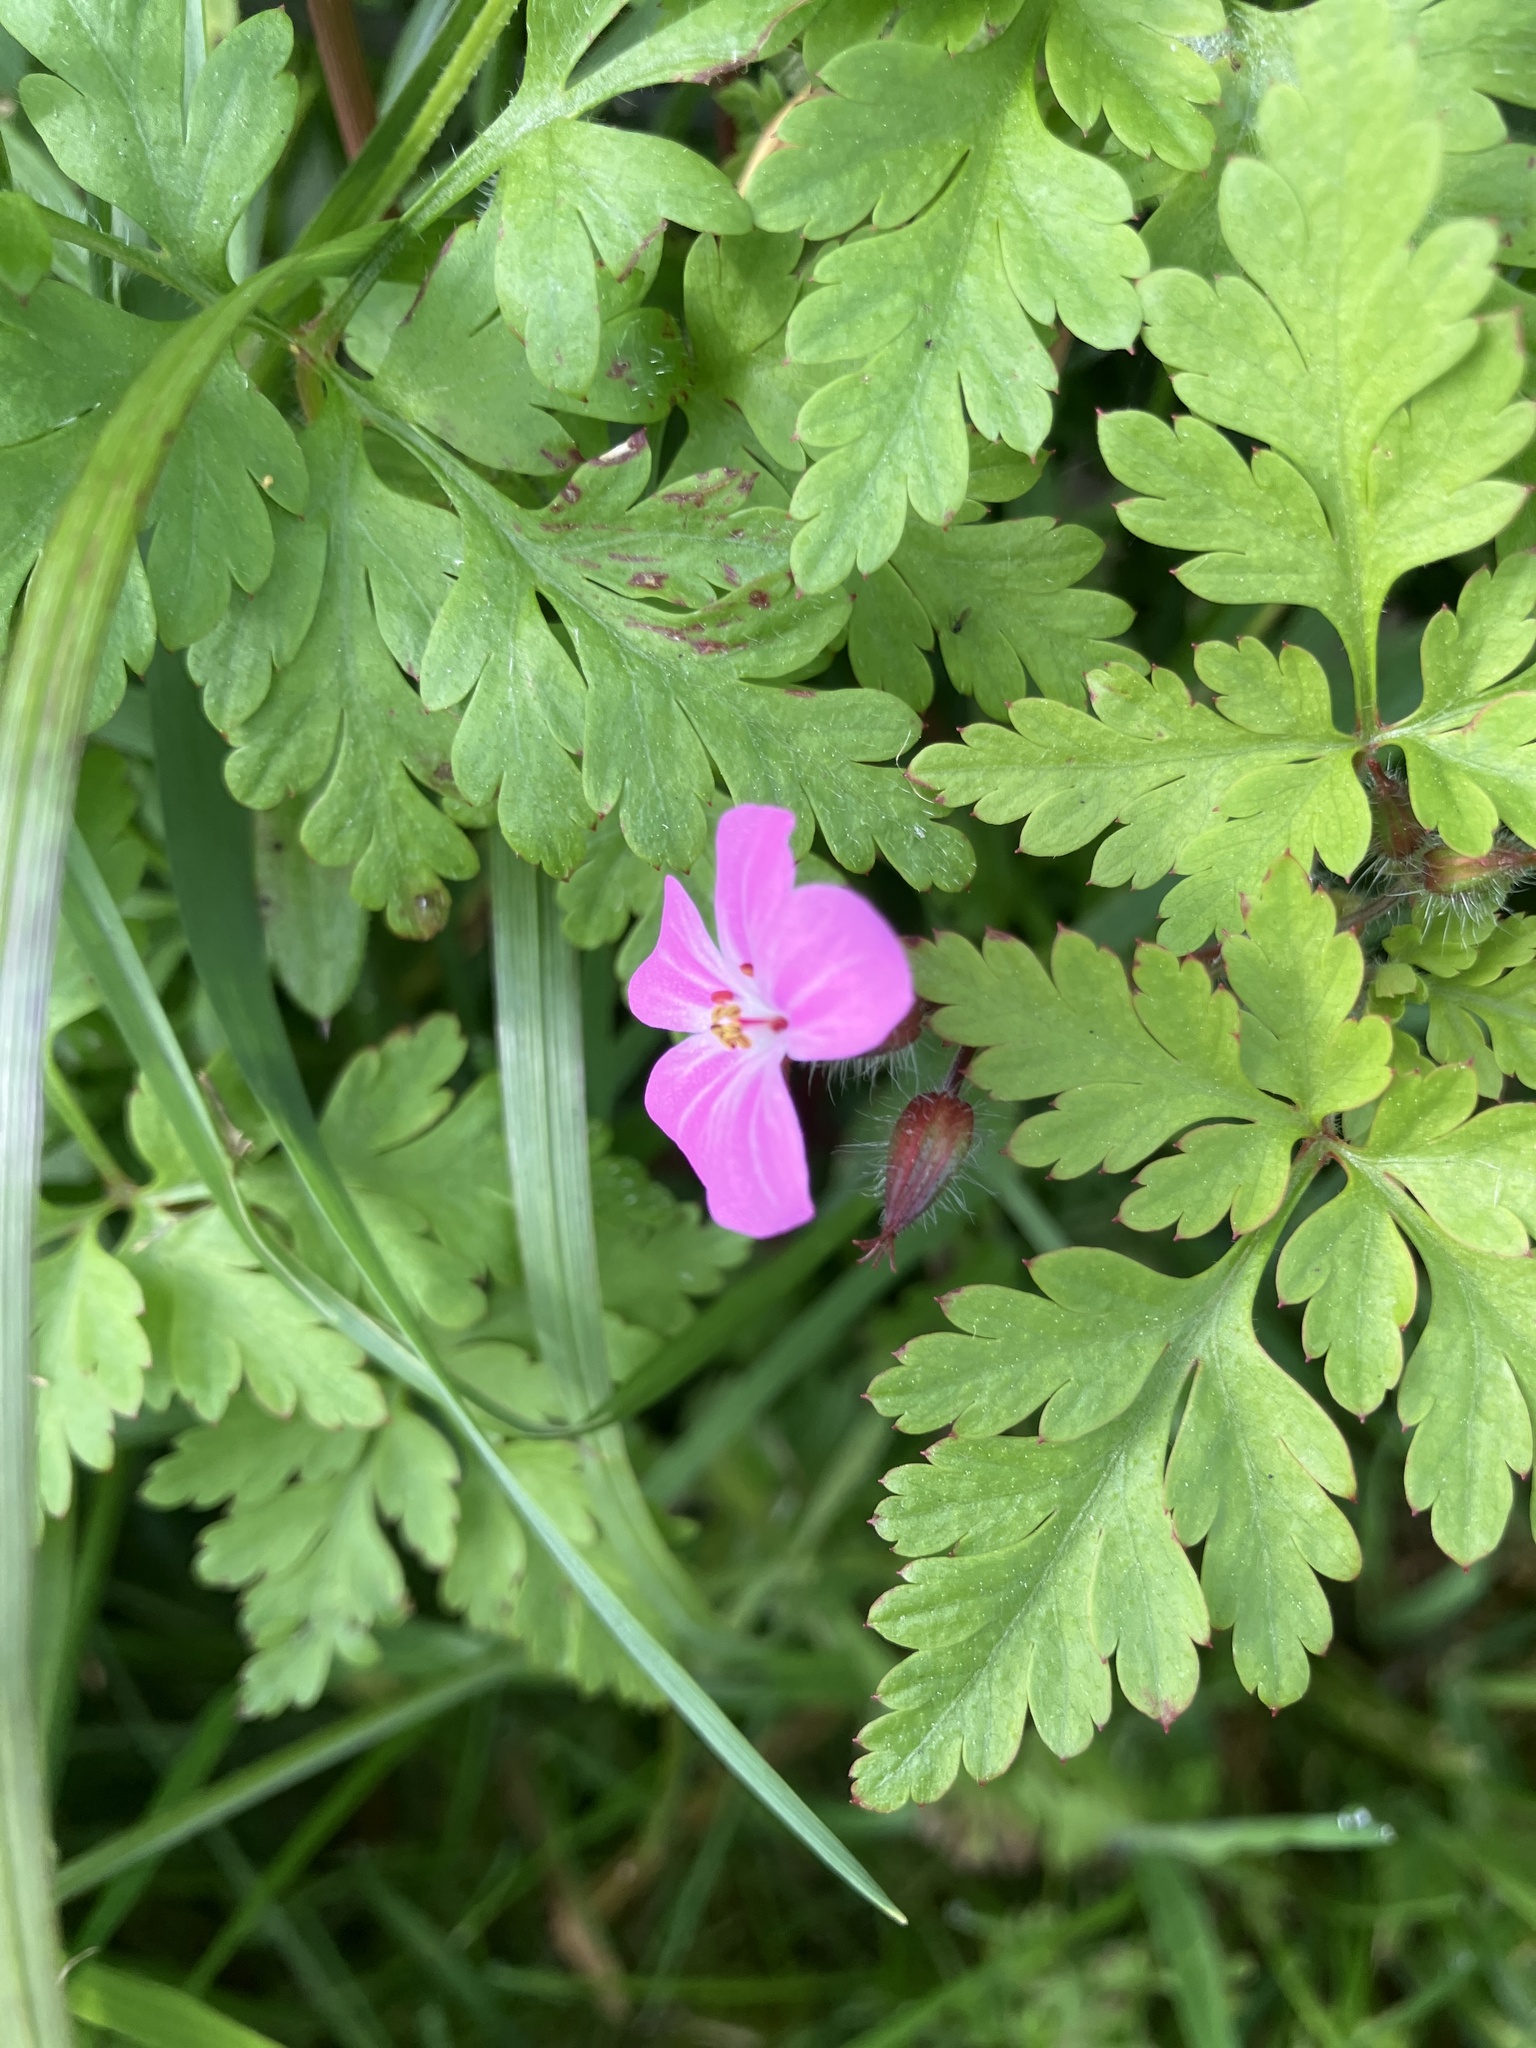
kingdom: Plantae
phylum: Tracheophyta
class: Magnoliopsida
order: Geraniales
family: Geraniaceae
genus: Geranium
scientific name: Geranium robertianum
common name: Herb-robert
